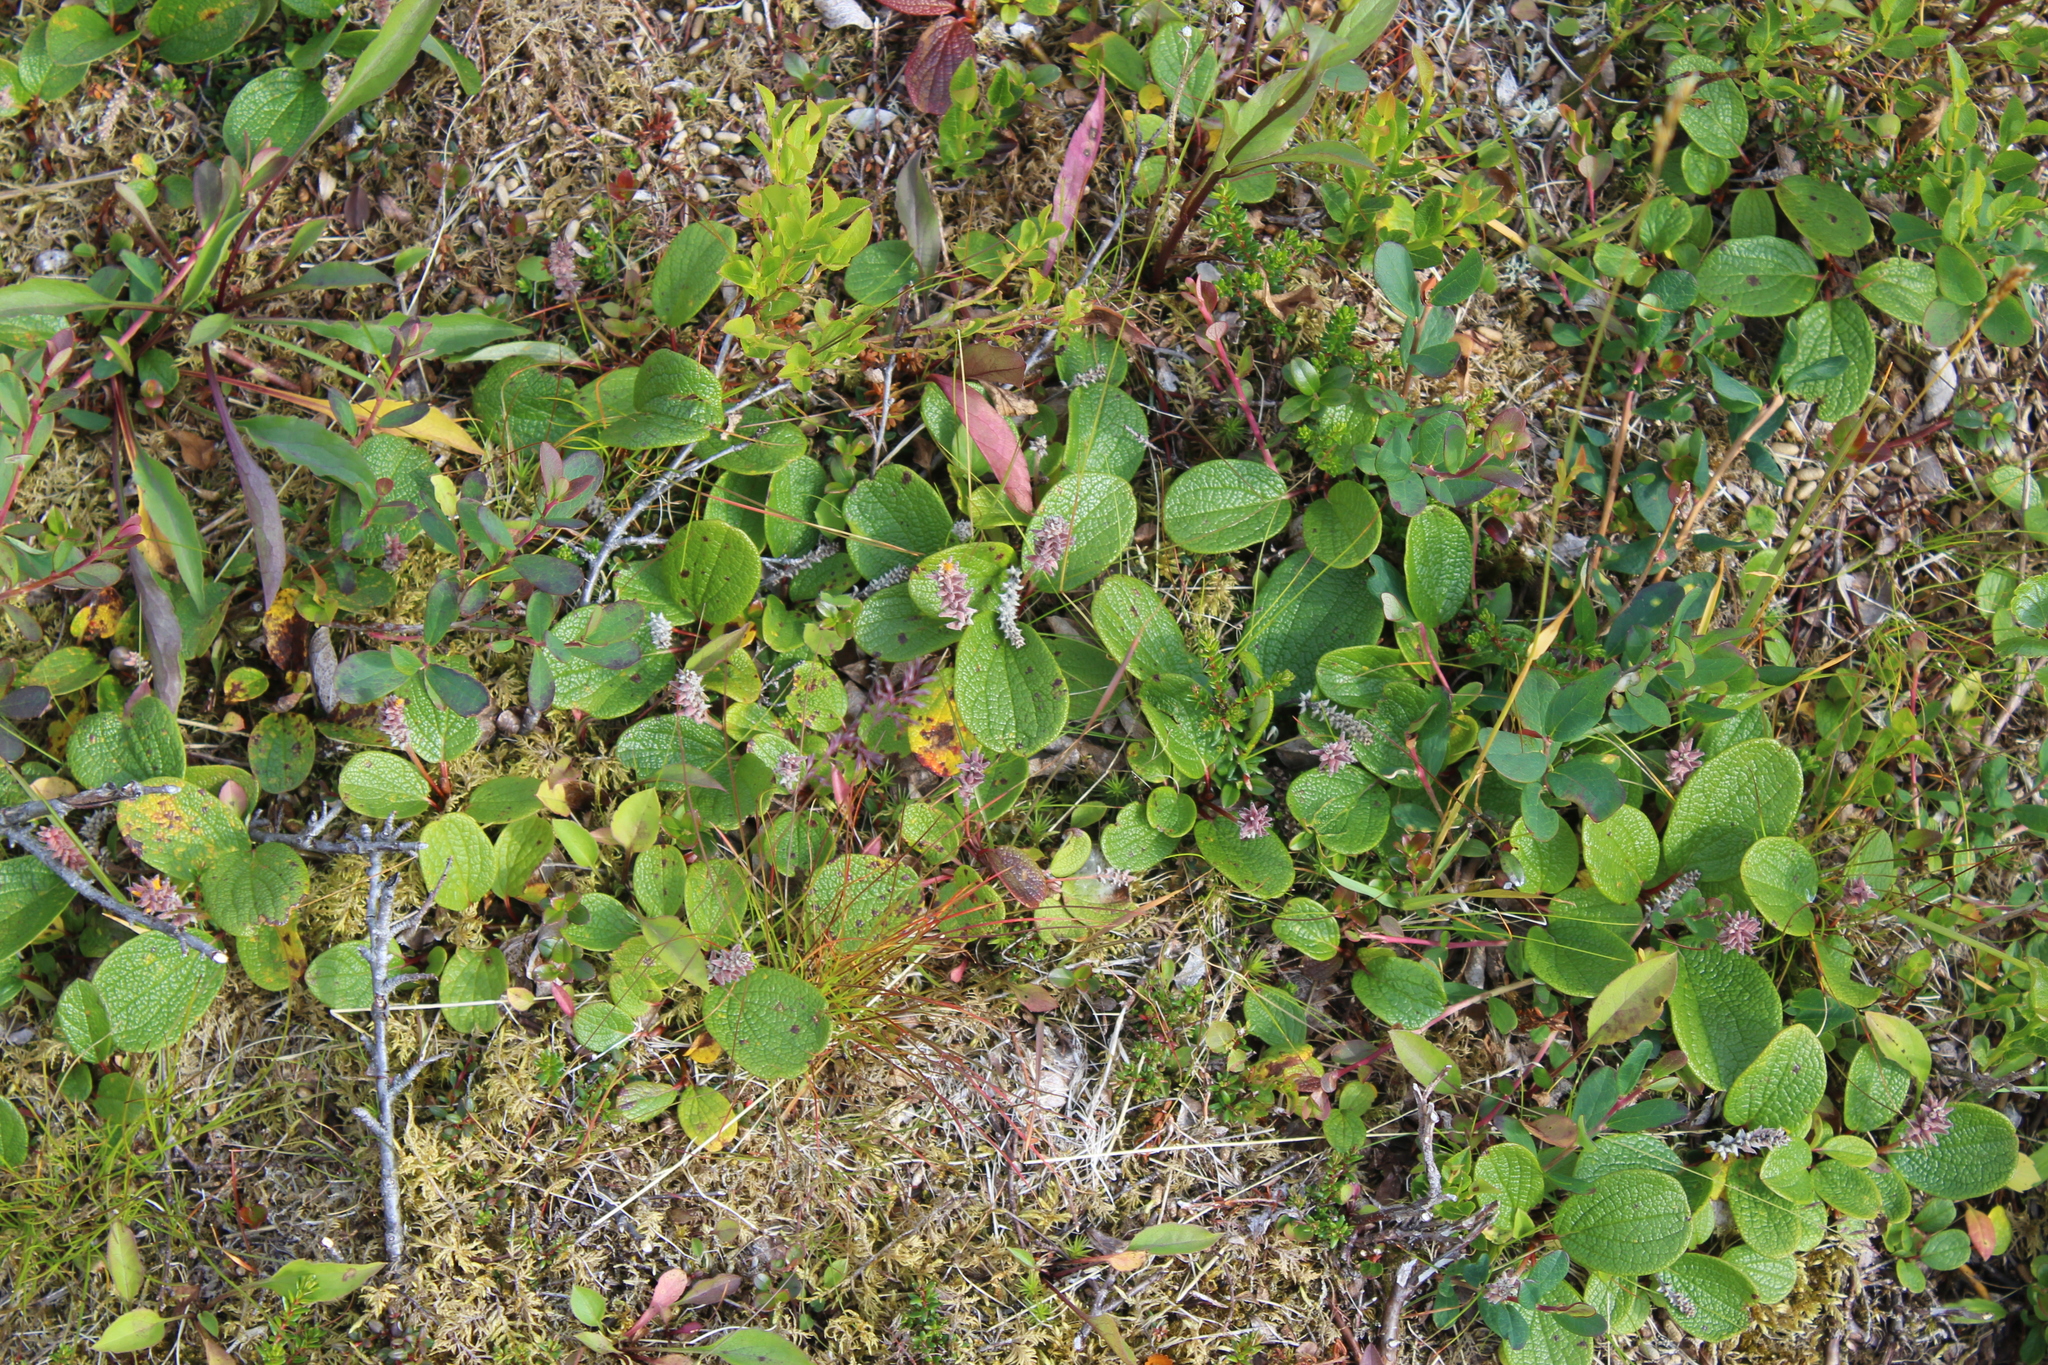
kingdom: Plantae
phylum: Tracheophyta
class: Magnoliopsida
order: Malpighiales
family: Salicaceae
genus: Salix
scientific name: Salix reticulata
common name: Net-leaved willow
